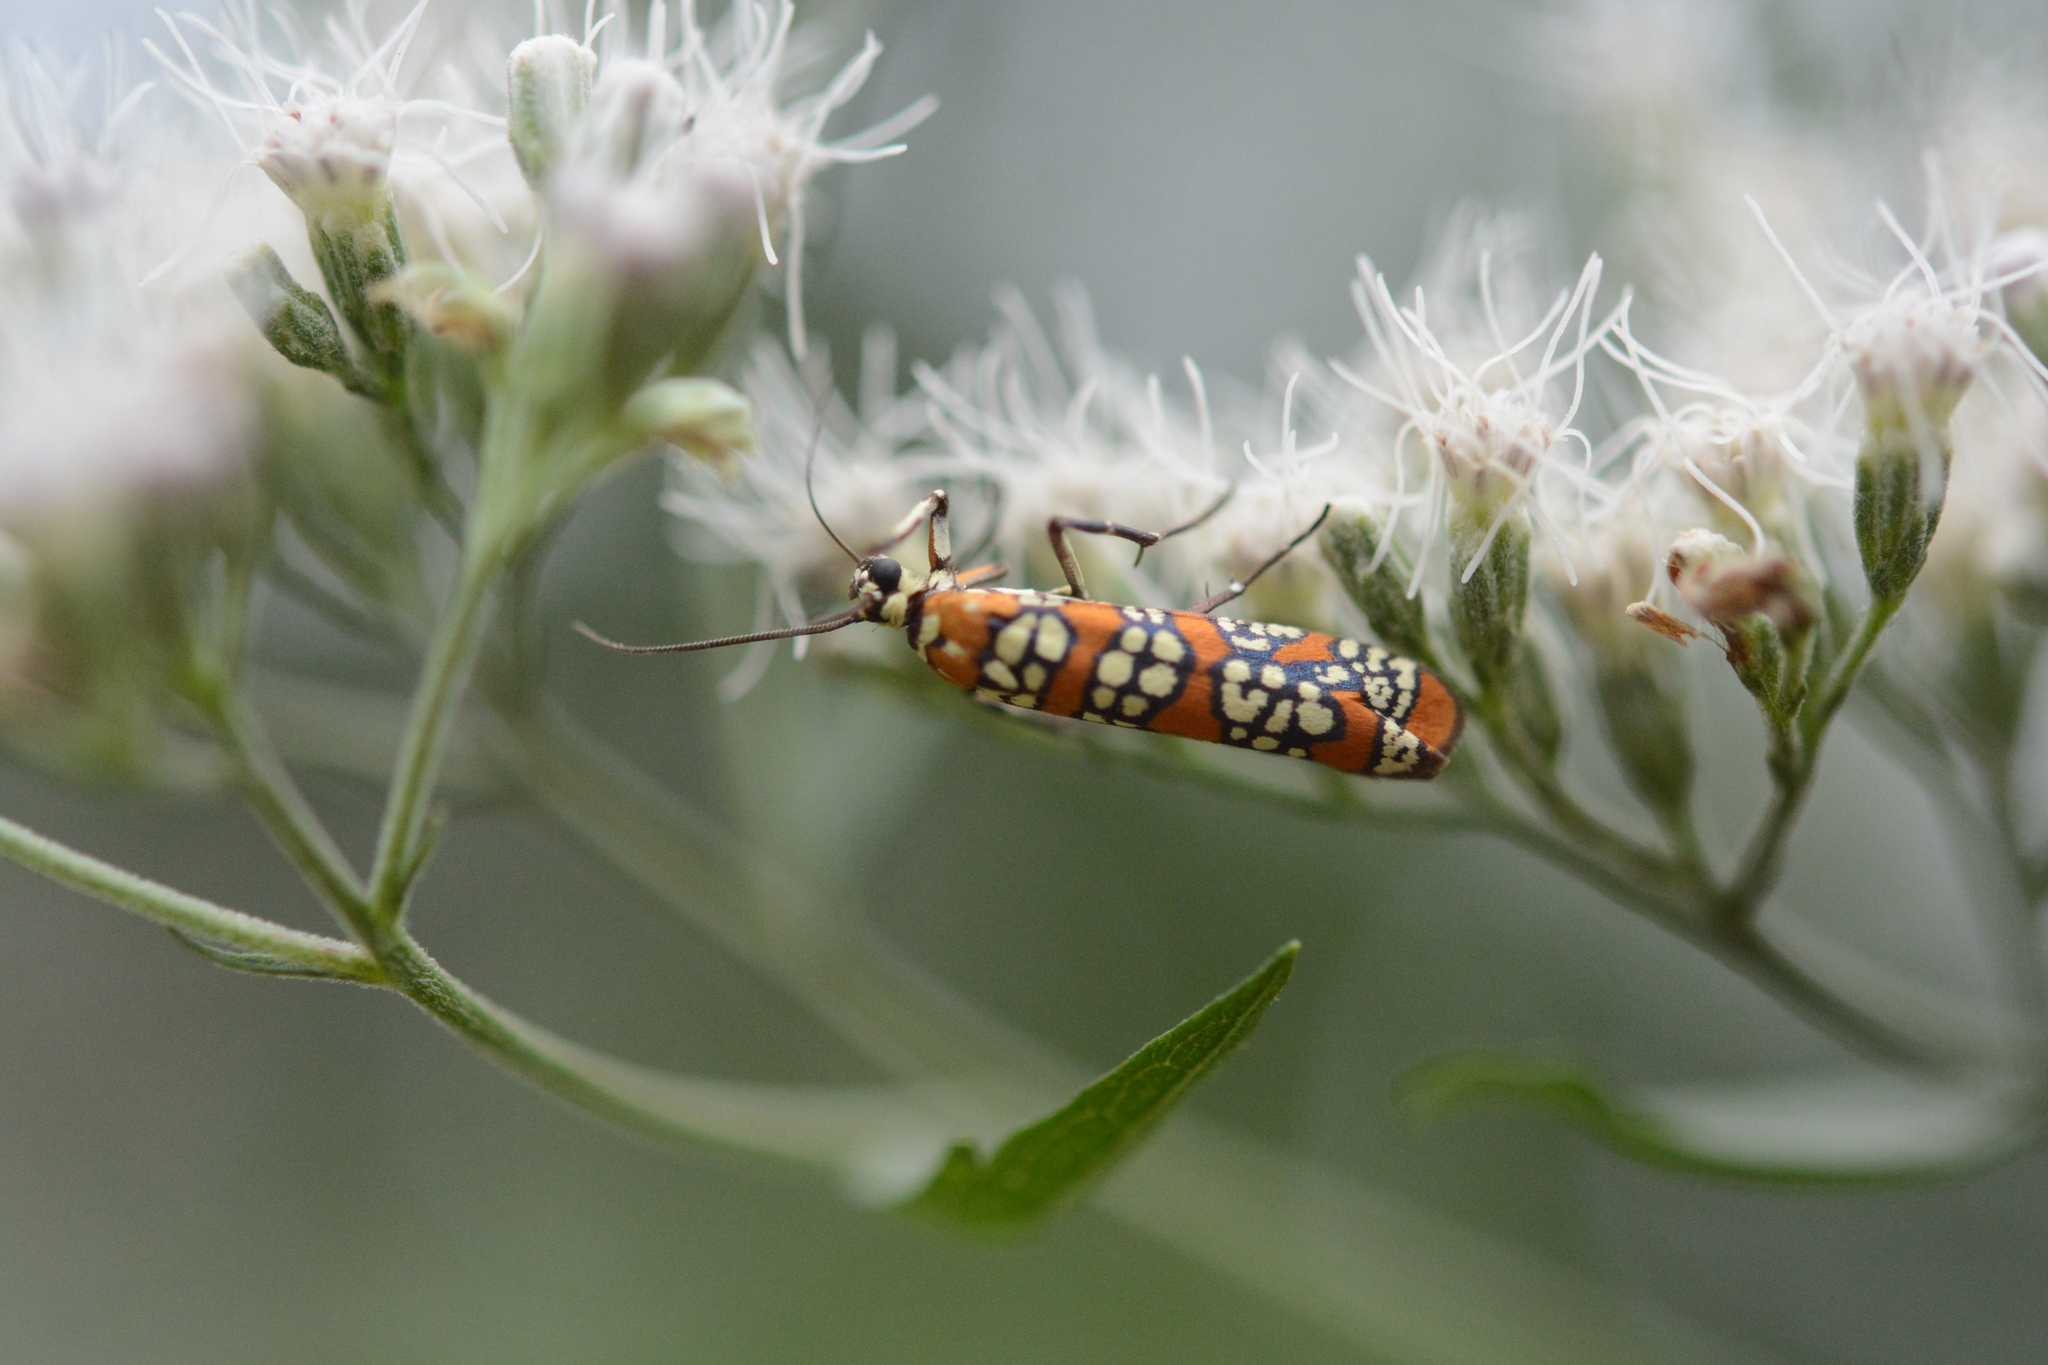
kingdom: Animalia
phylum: Arthropoda
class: Insecta
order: Lepidoptera
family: Attevidae
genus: Atteva
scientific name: Atteva punctella
